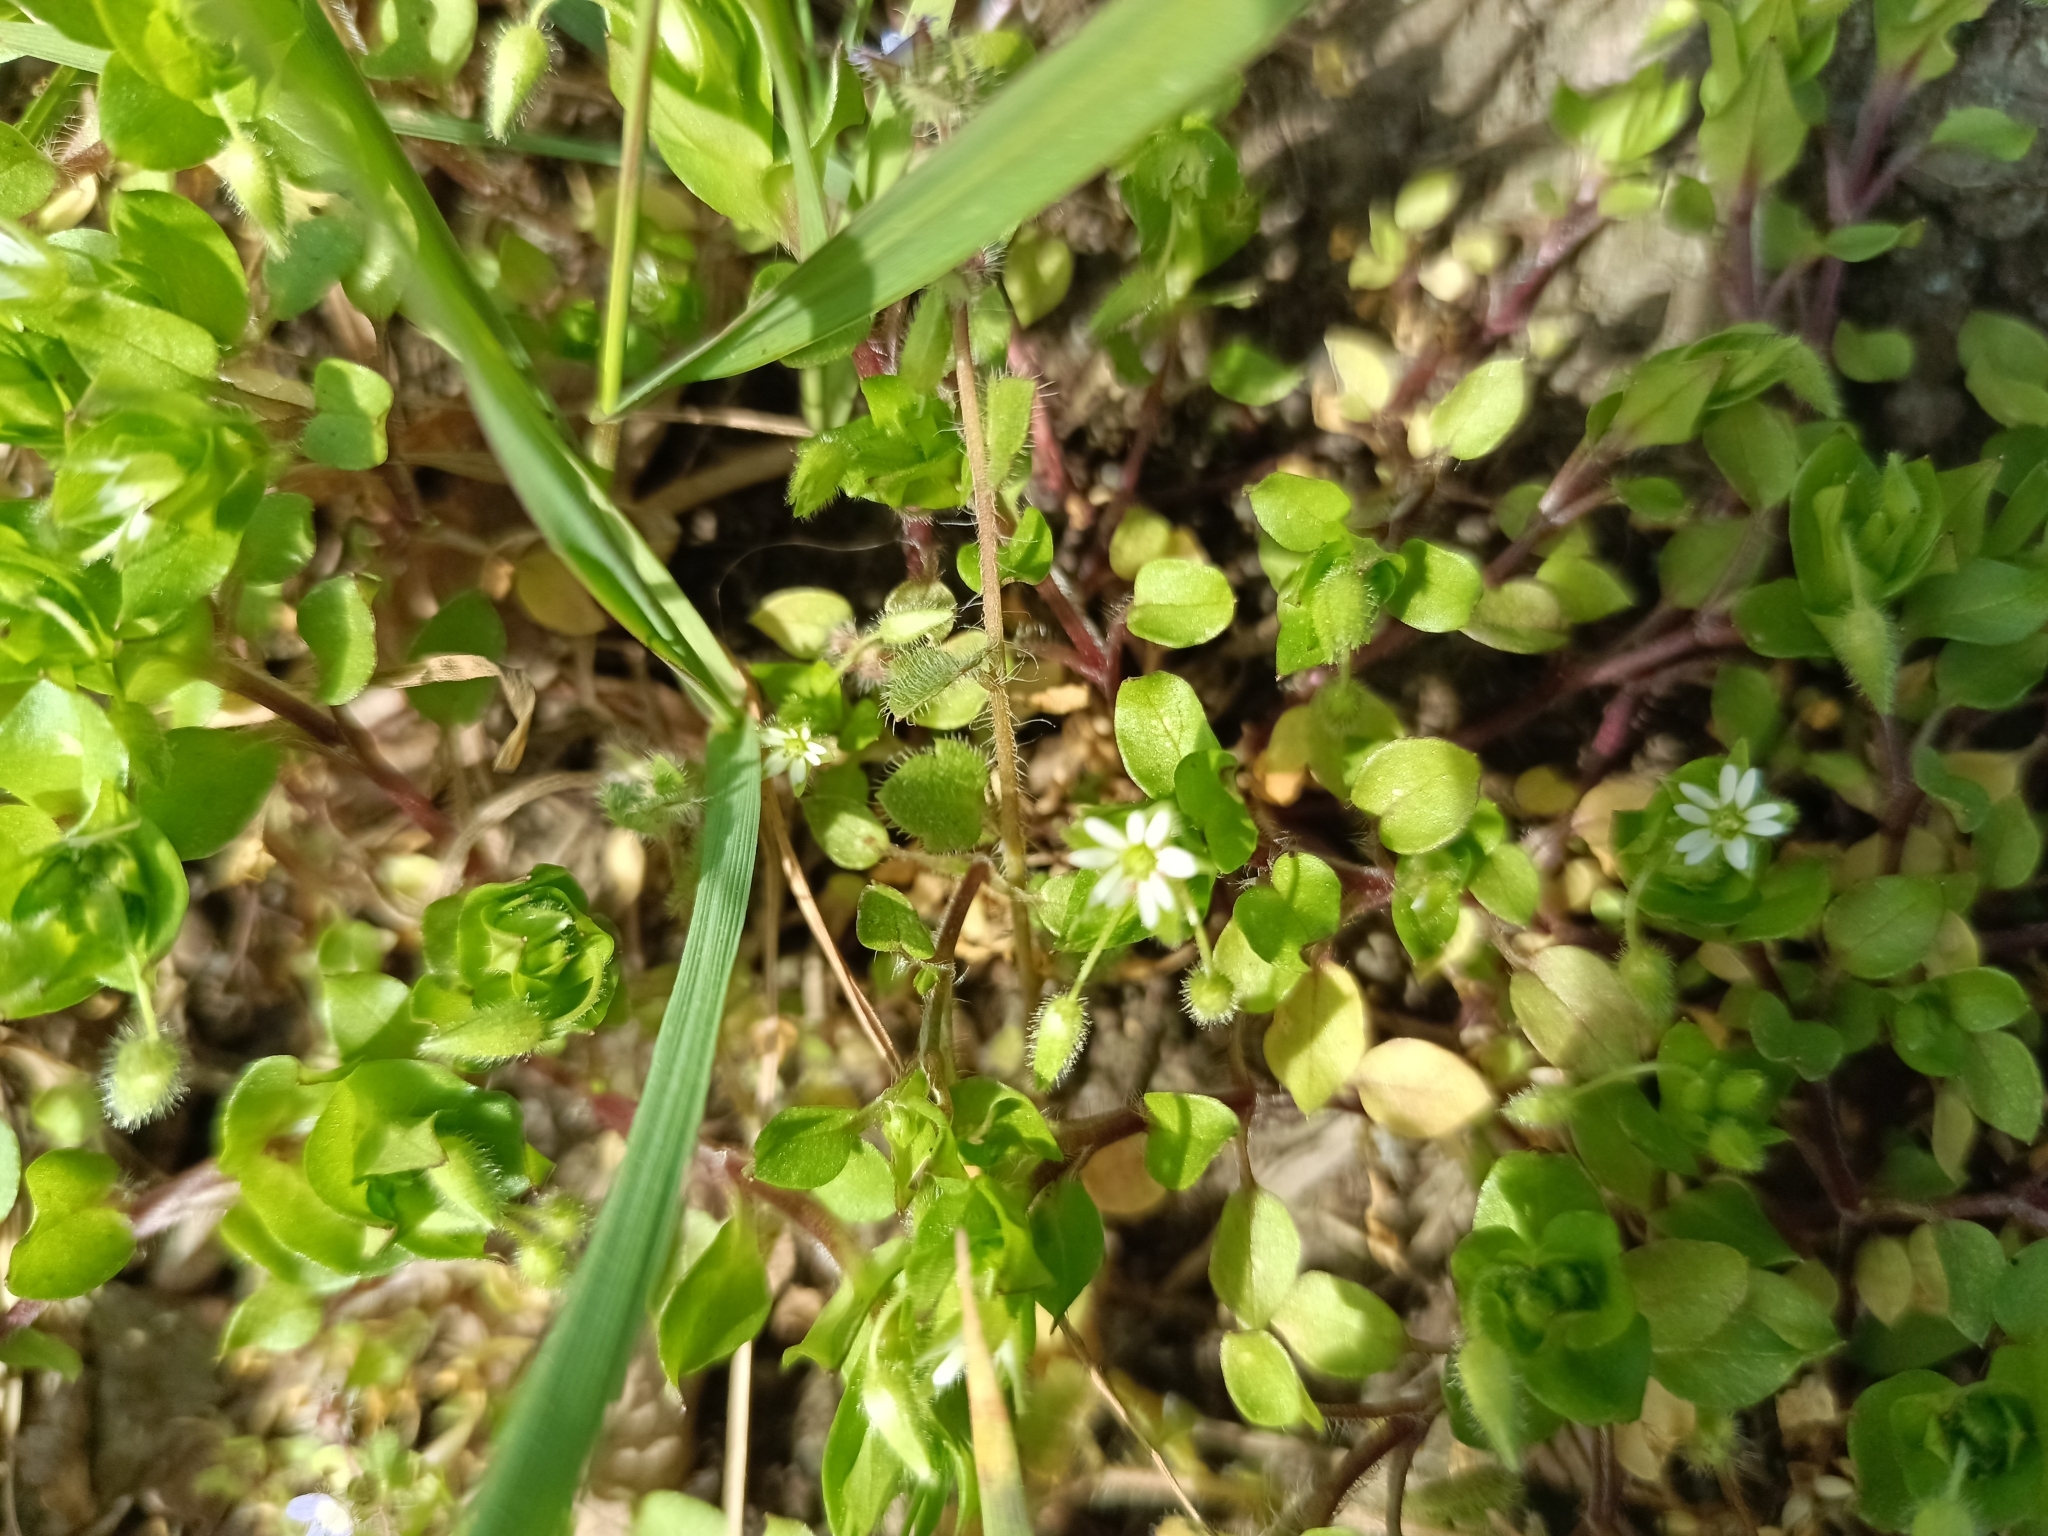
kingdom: Plantae
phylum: Tracheophyta
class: Magnoliopsida
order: Caryophyllales
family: Caryophyllaceae
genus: Stellaria
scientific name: Stellaria media
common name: Common chickweed
